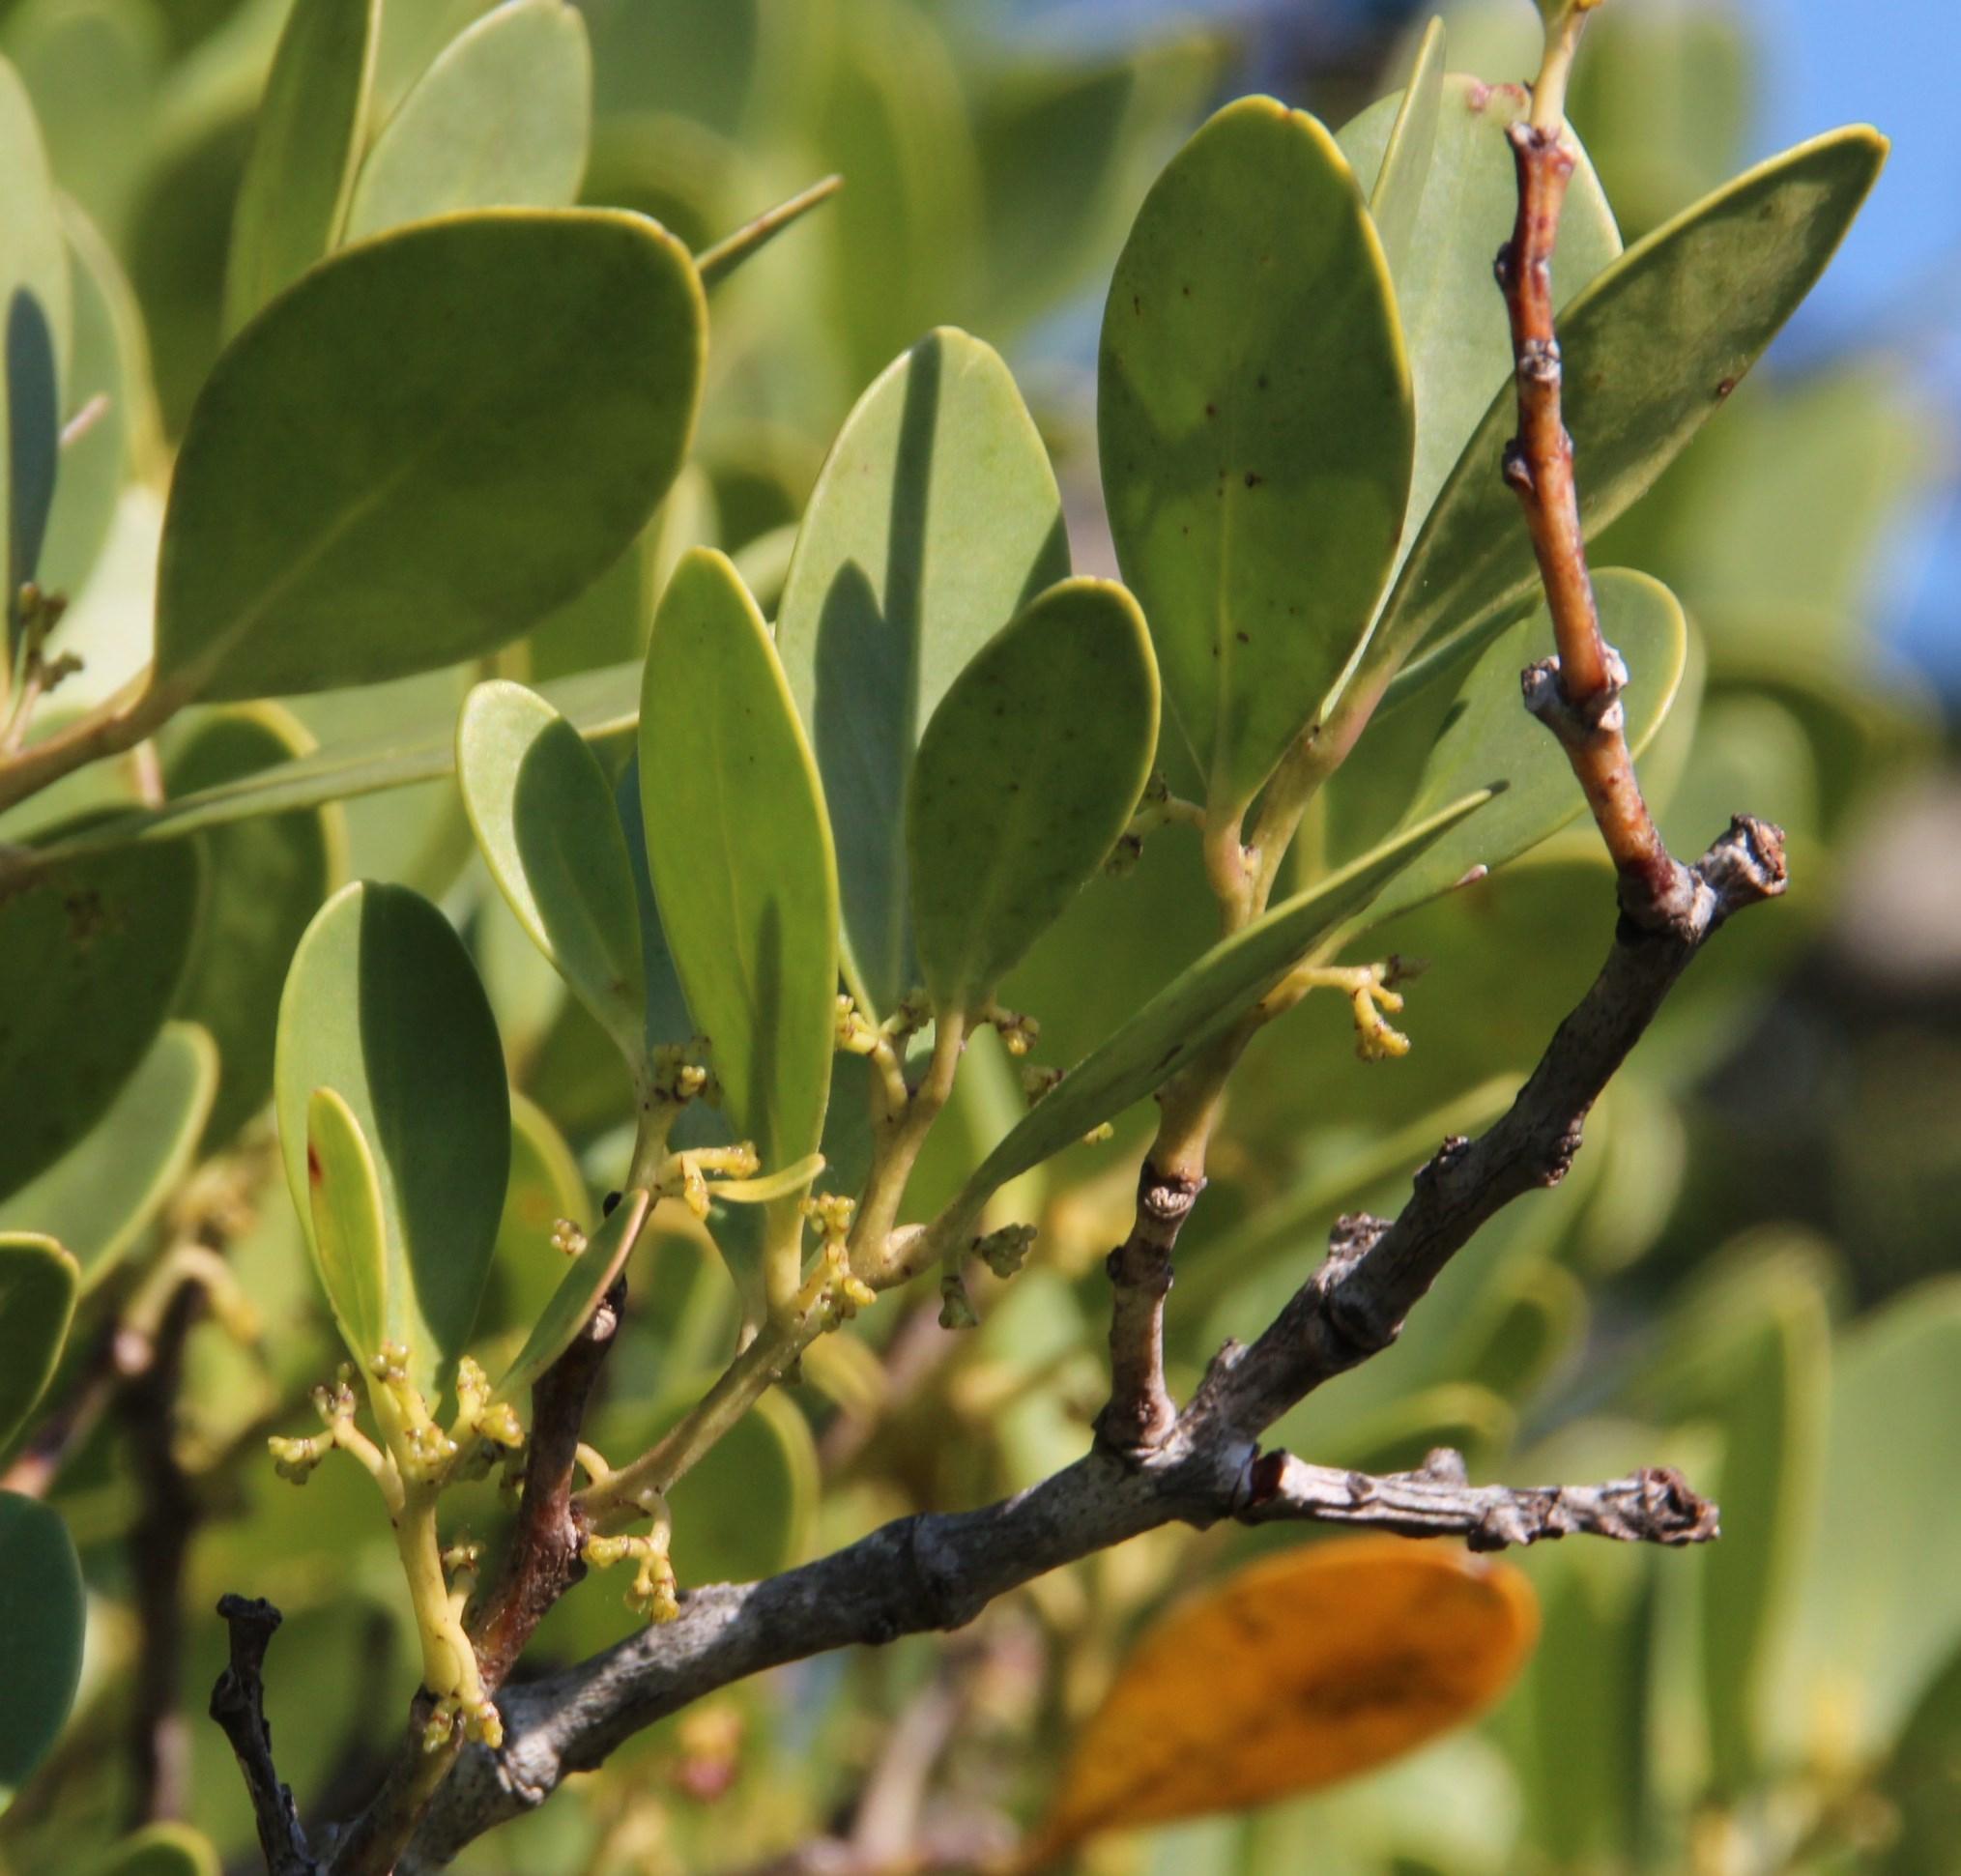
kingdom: Plantae
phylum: Tracheophyta
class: Magnoliopsida
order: Celastrales
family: Celastraceae
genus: Gymnosporia
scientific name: Gymnosporia laurina
